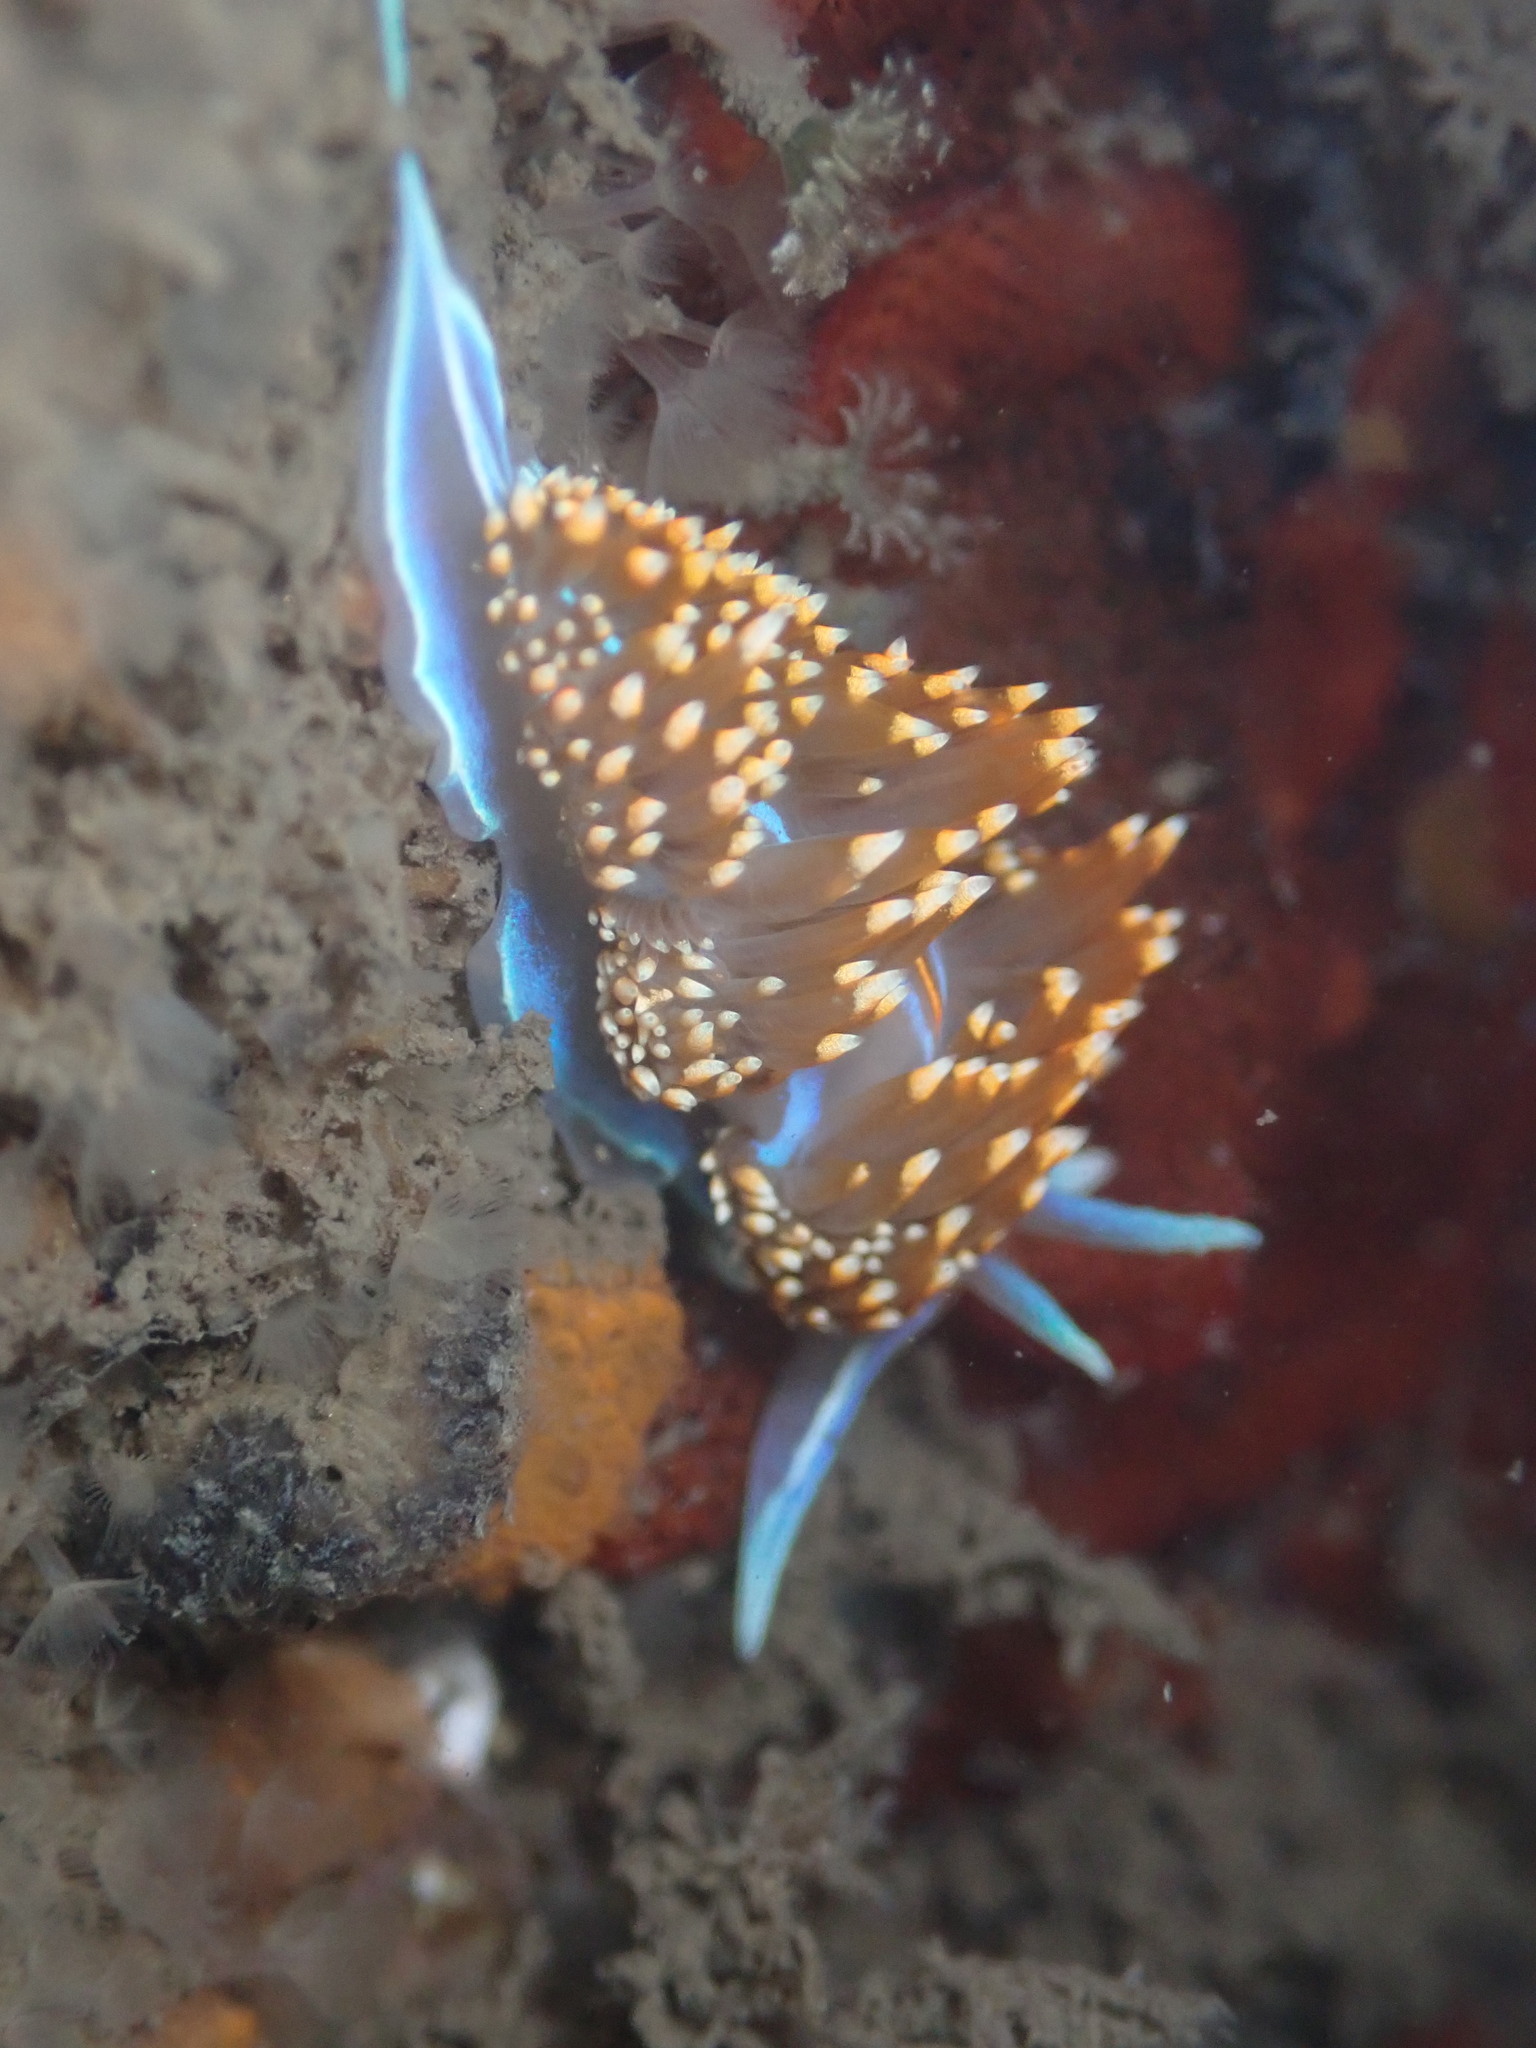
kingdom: Animalia
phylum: Mollusca
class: Gastropoda
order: Nudibranchia
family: Myrrhinidae
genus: Hermissenda
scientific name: Hermissenda opalescens
